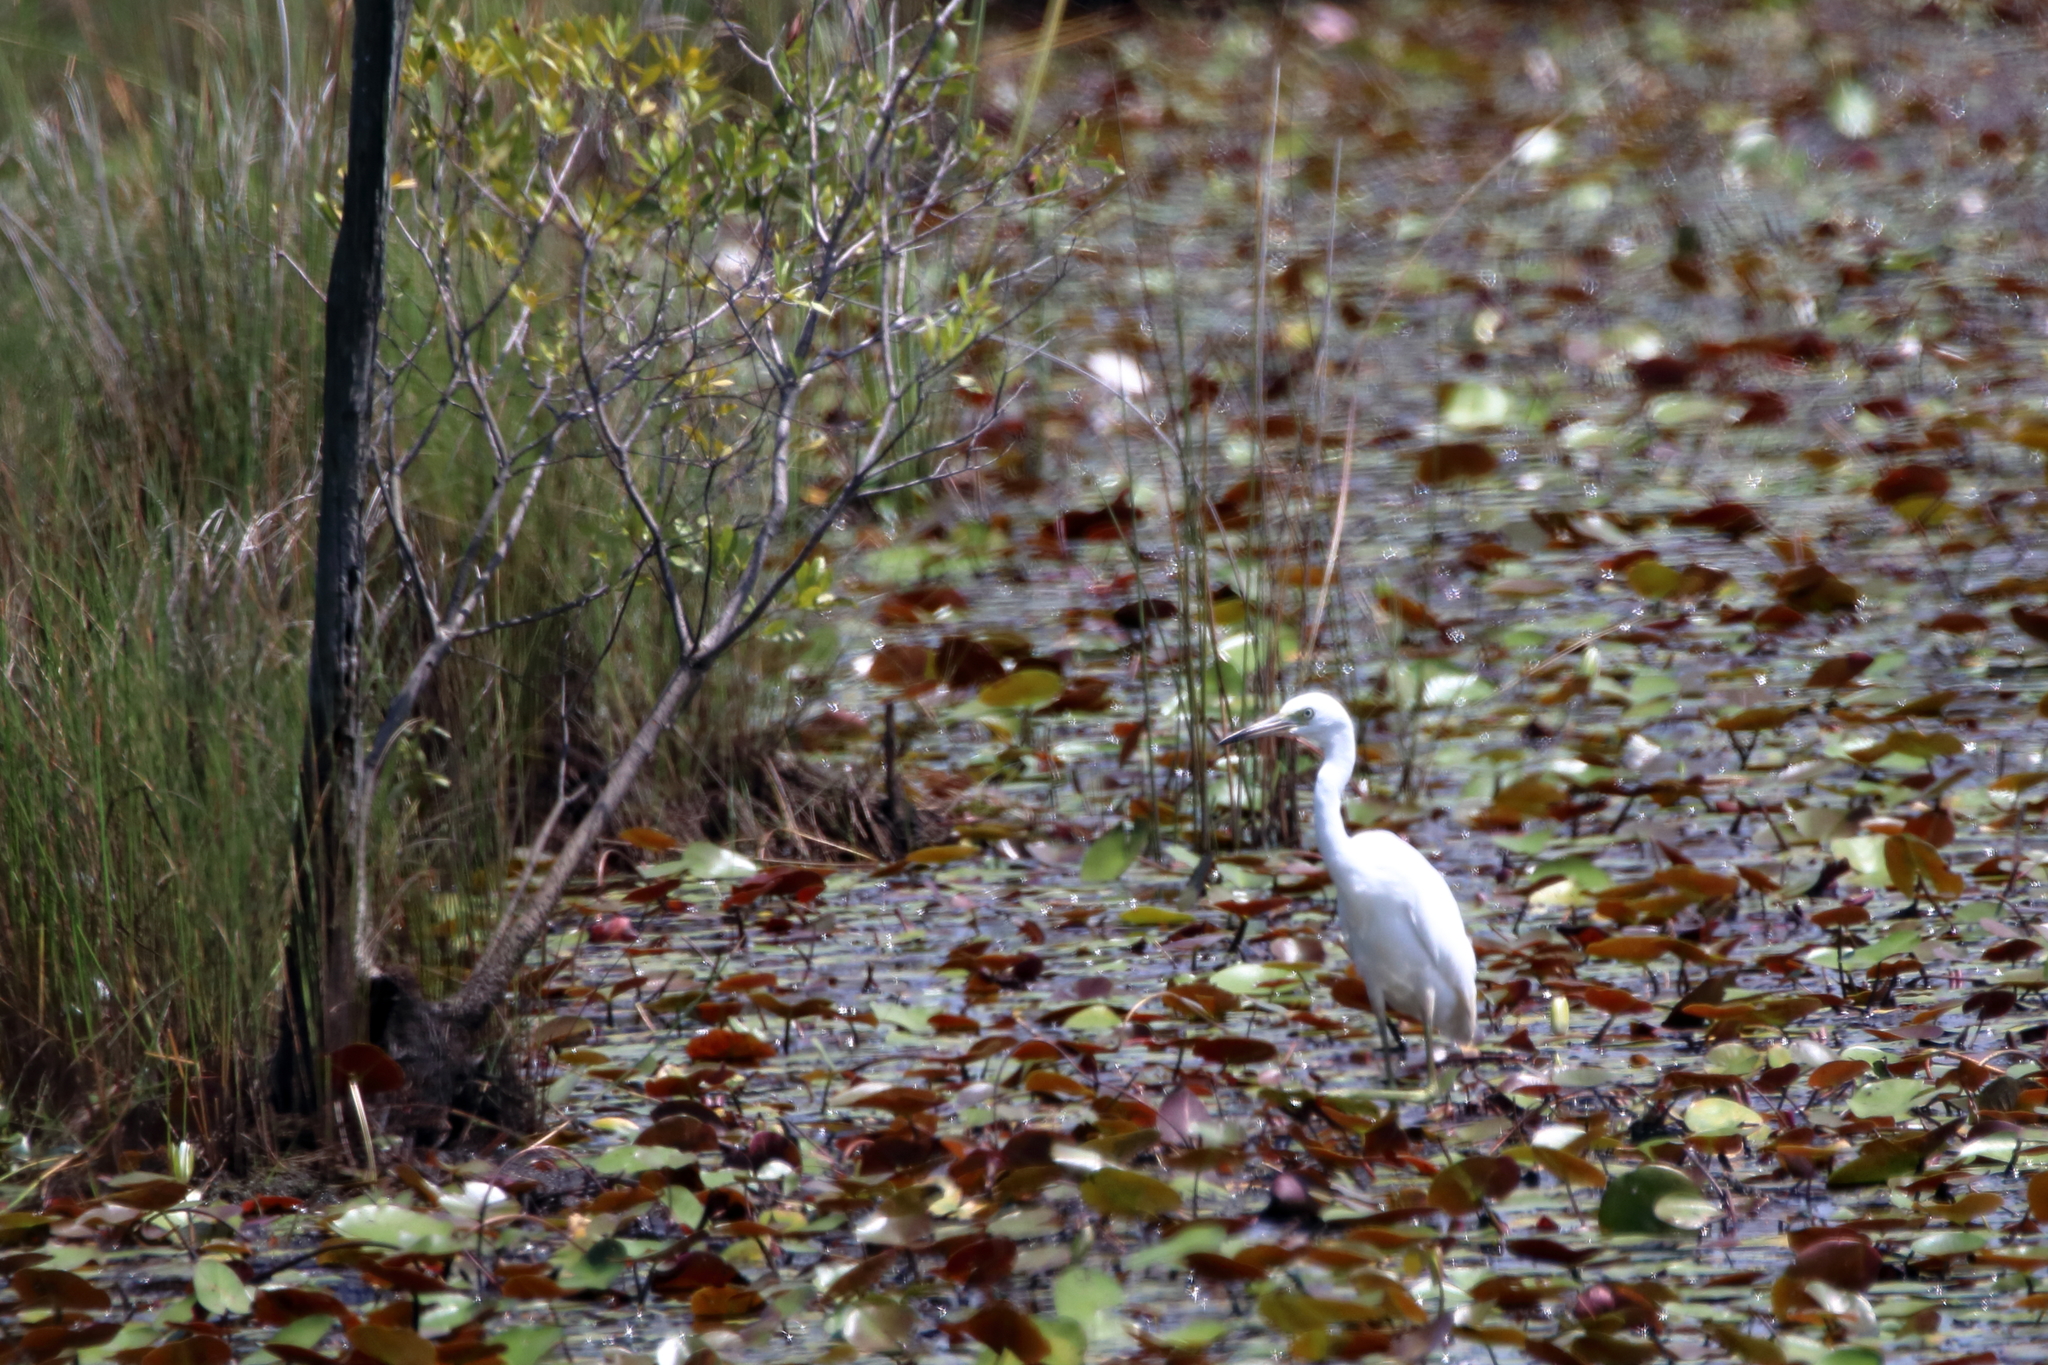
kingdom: Animalia
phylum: Chordata
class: Aves
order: Pelecaniformes
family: Ardeidae
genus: Egretta
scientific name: Egretta caerulea
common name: Little blue heron
